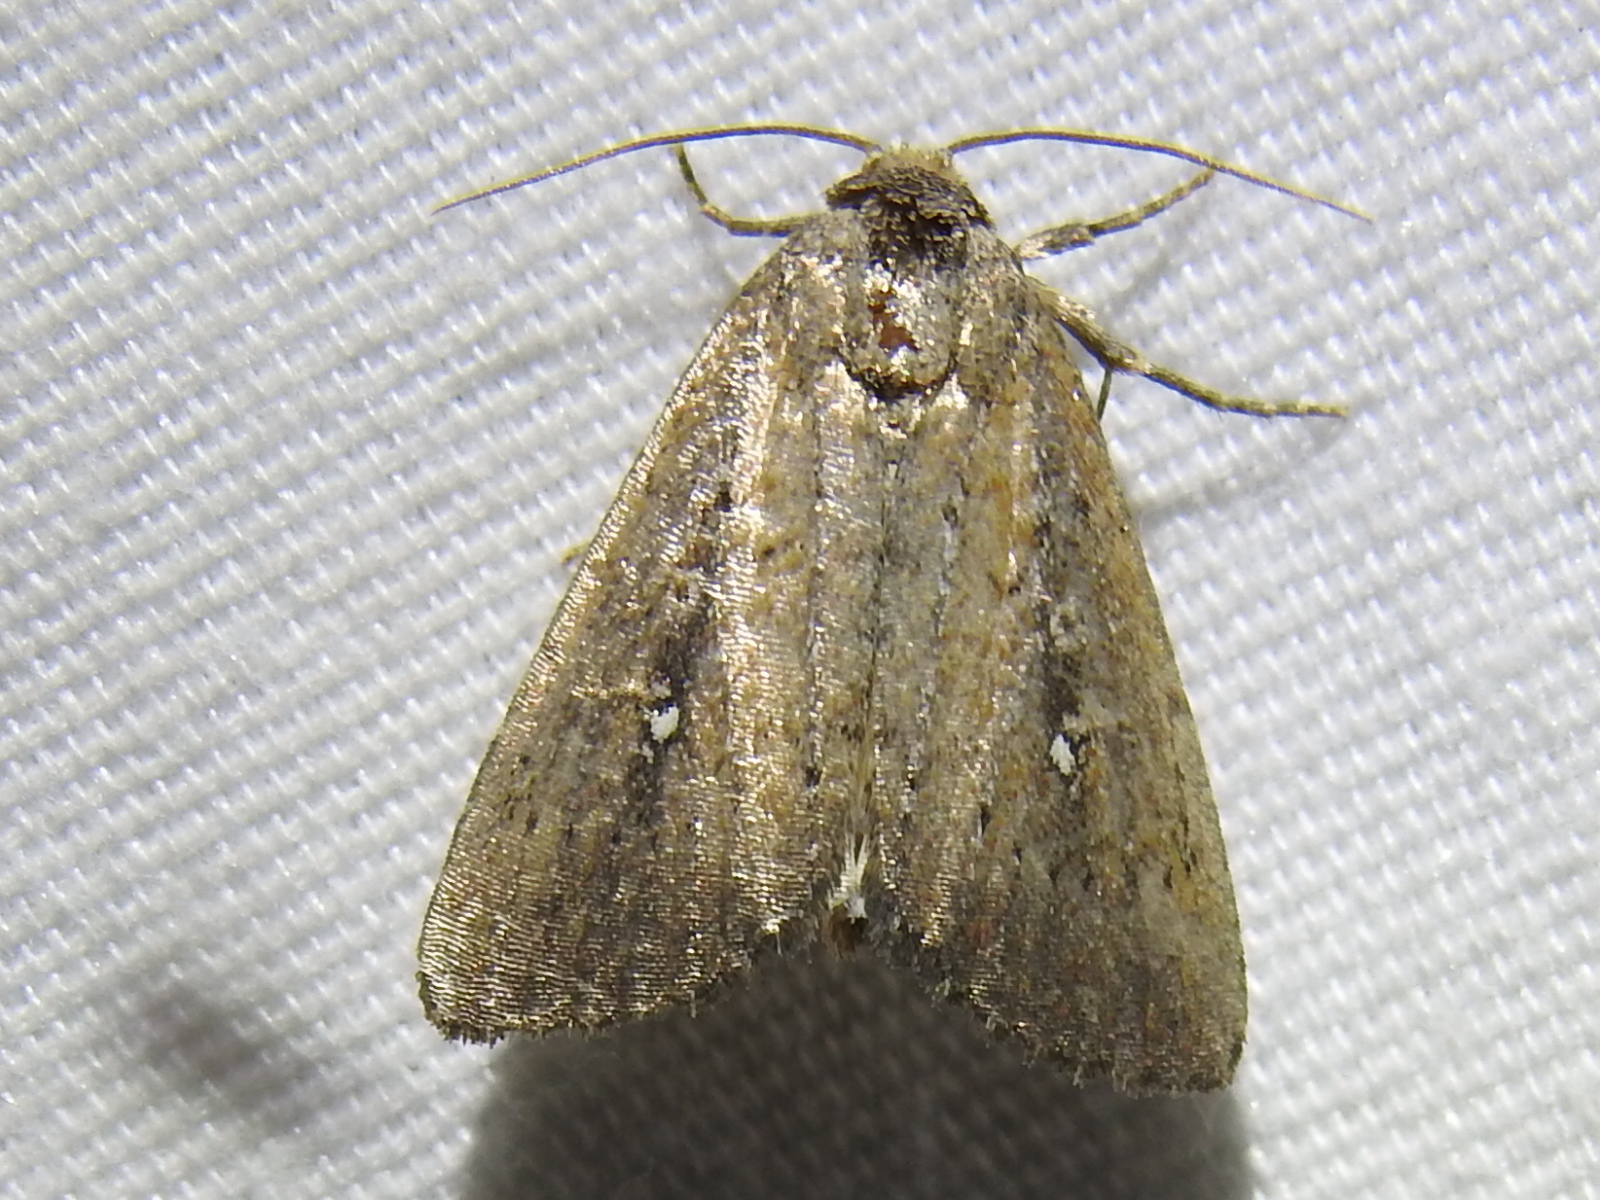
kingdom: Animalia
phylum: Arthropoda
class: Insecta
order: Lepidoptera
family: Noctuidae
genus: Condica
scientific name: Condica videns
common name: White-dotted groundling
